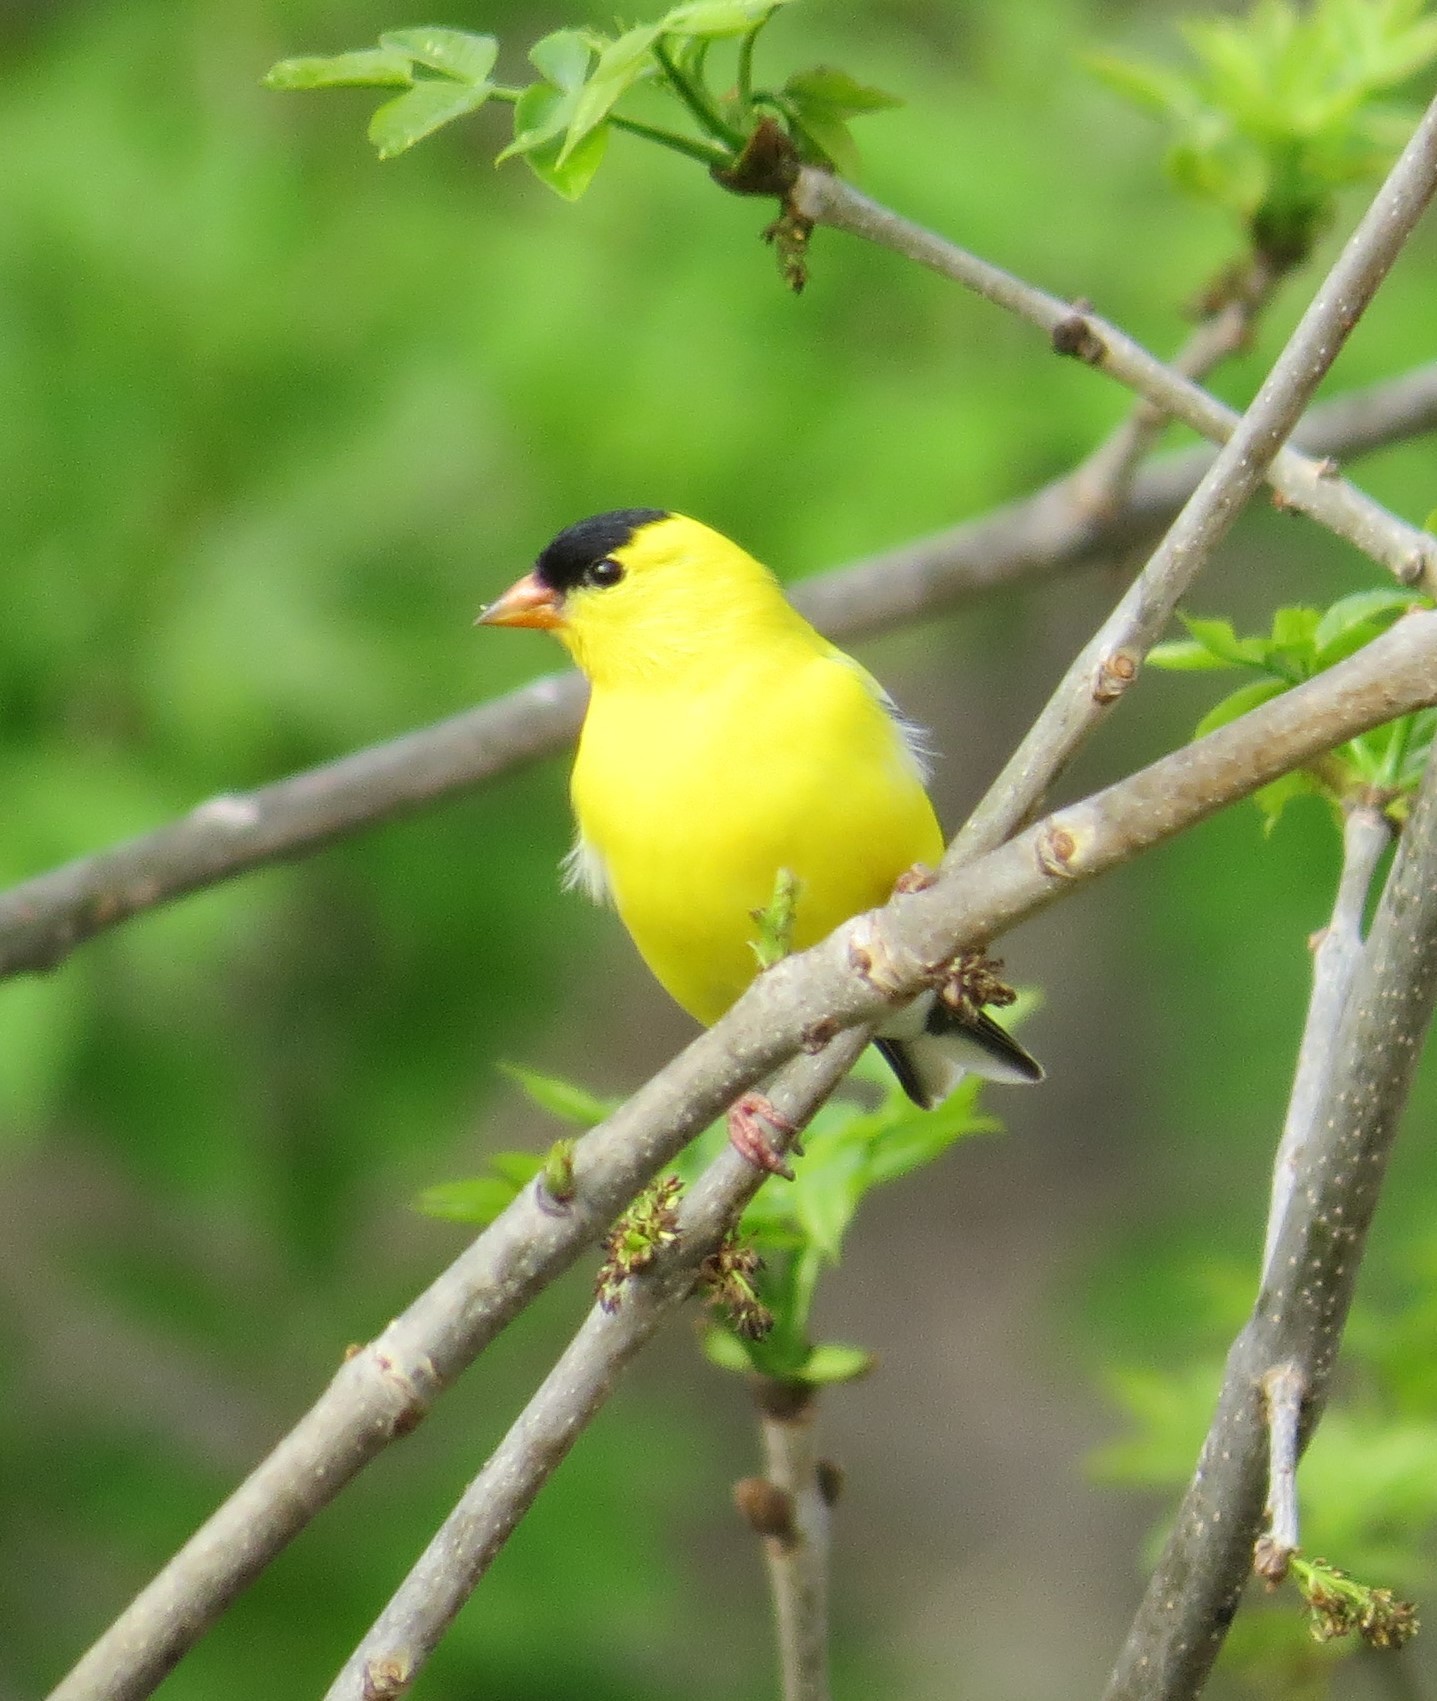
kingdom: Animalia
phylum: Chordata
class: Aves
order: Passeriformes
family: Fringillidae
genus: Spinus
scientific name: Spinus tristis
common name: American goldfinch
